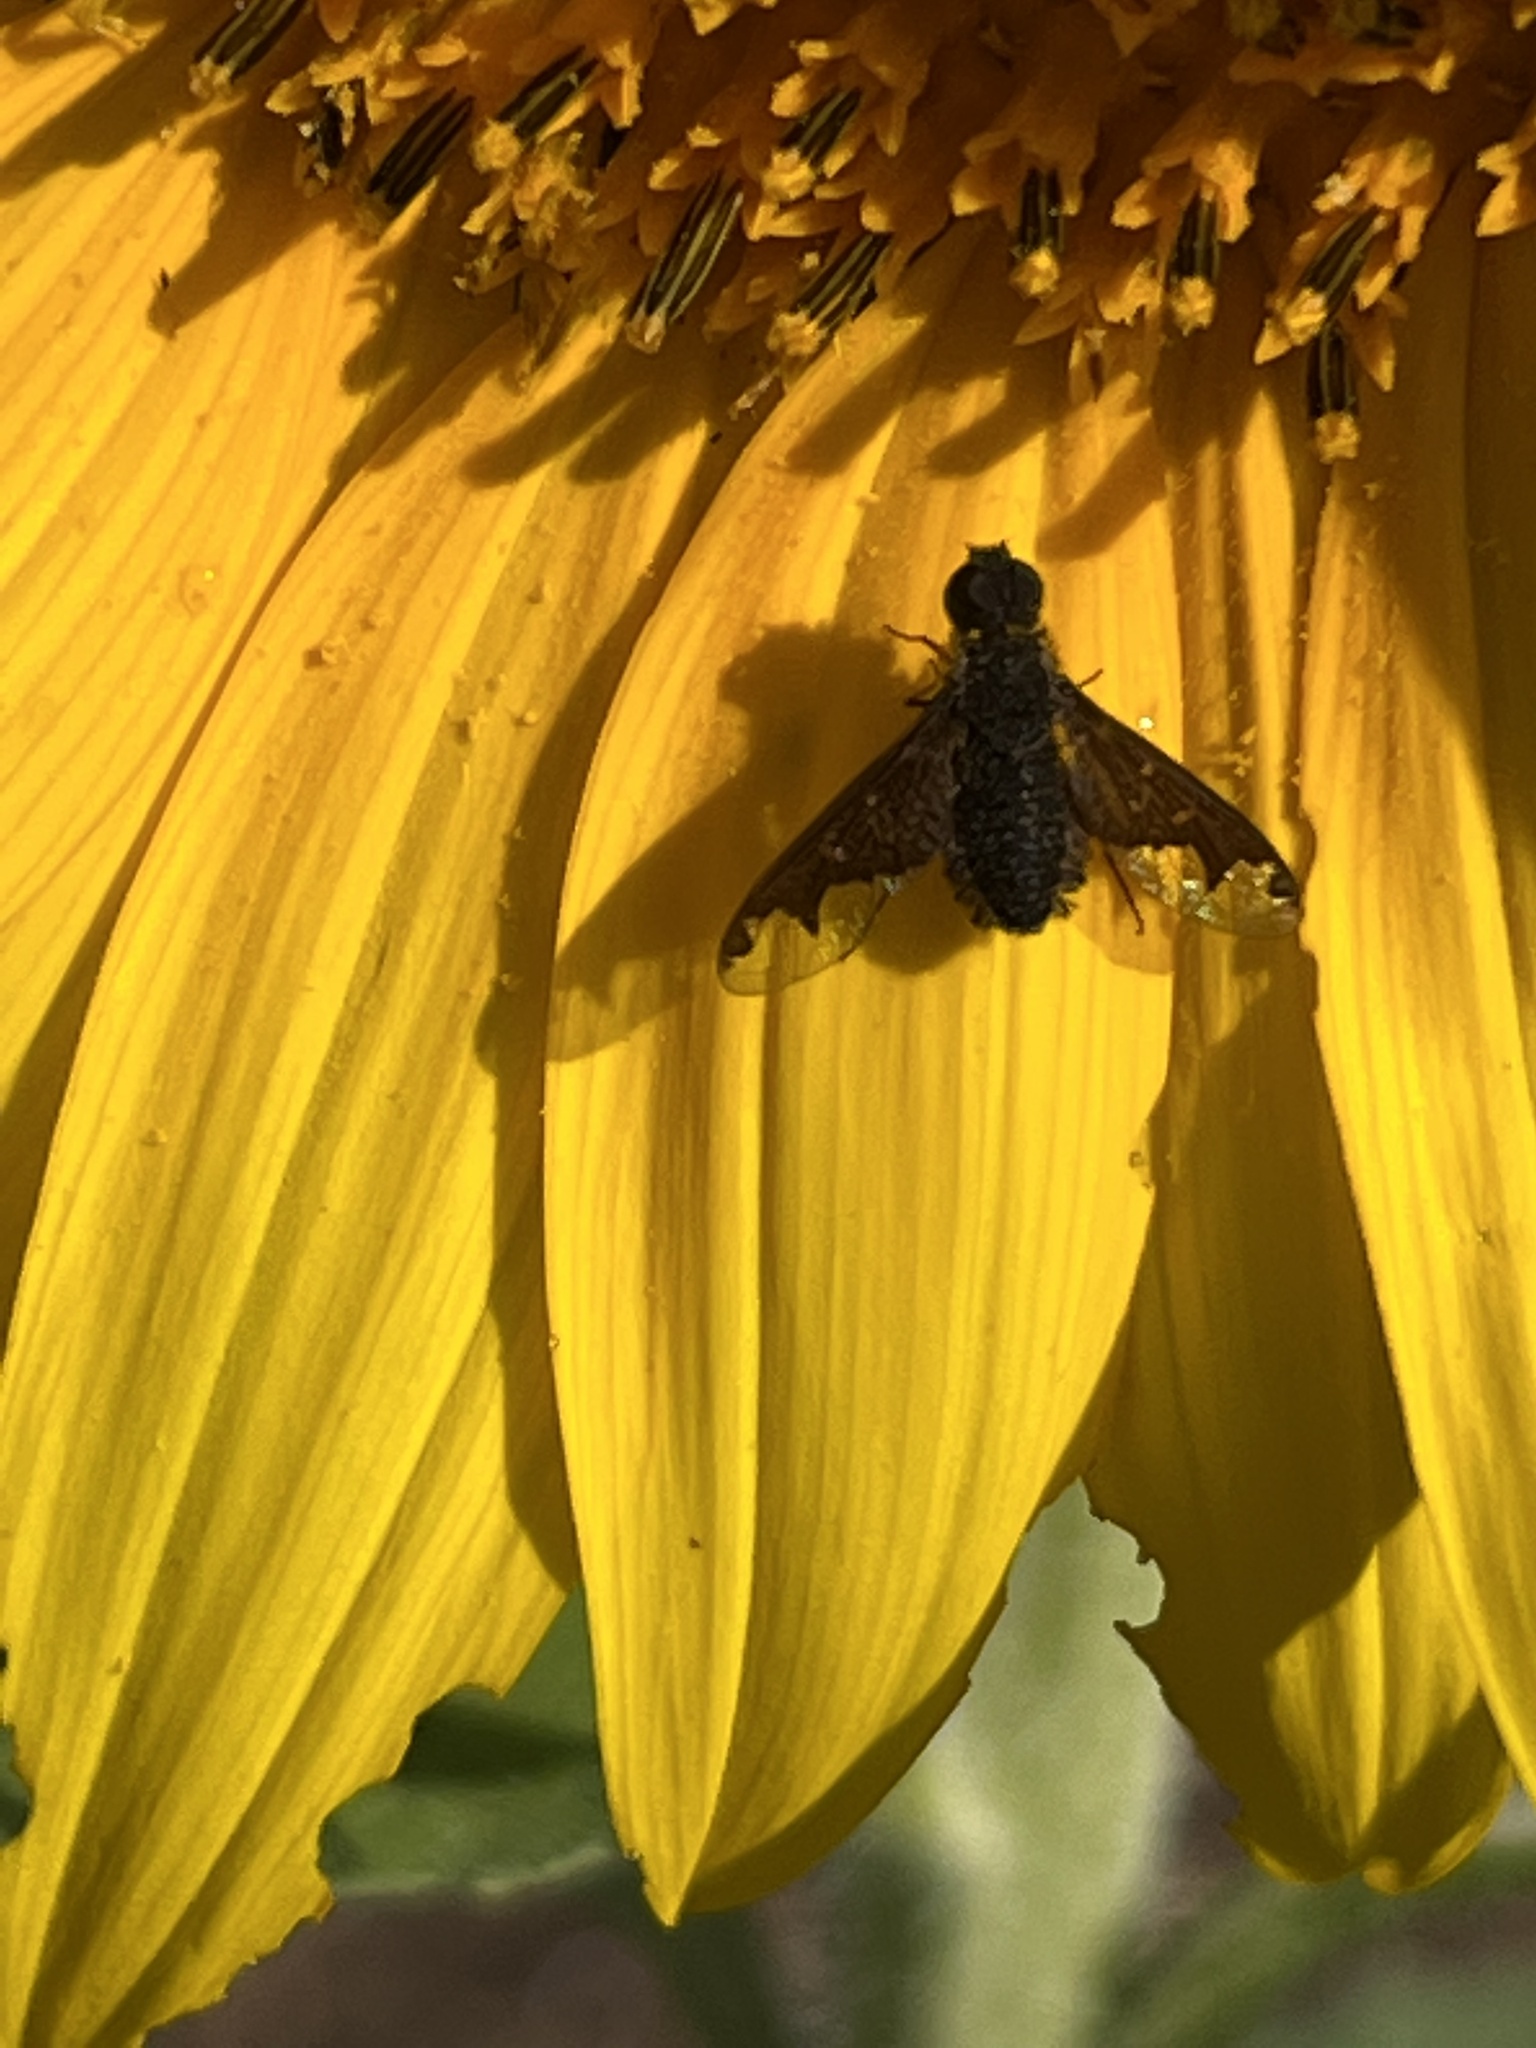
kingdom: Animalia
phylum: Arthropoda
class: Insecta
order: Diptera
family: Bombyliidae
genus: Hemipenthes
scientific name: Hemipenthes sinuosus
